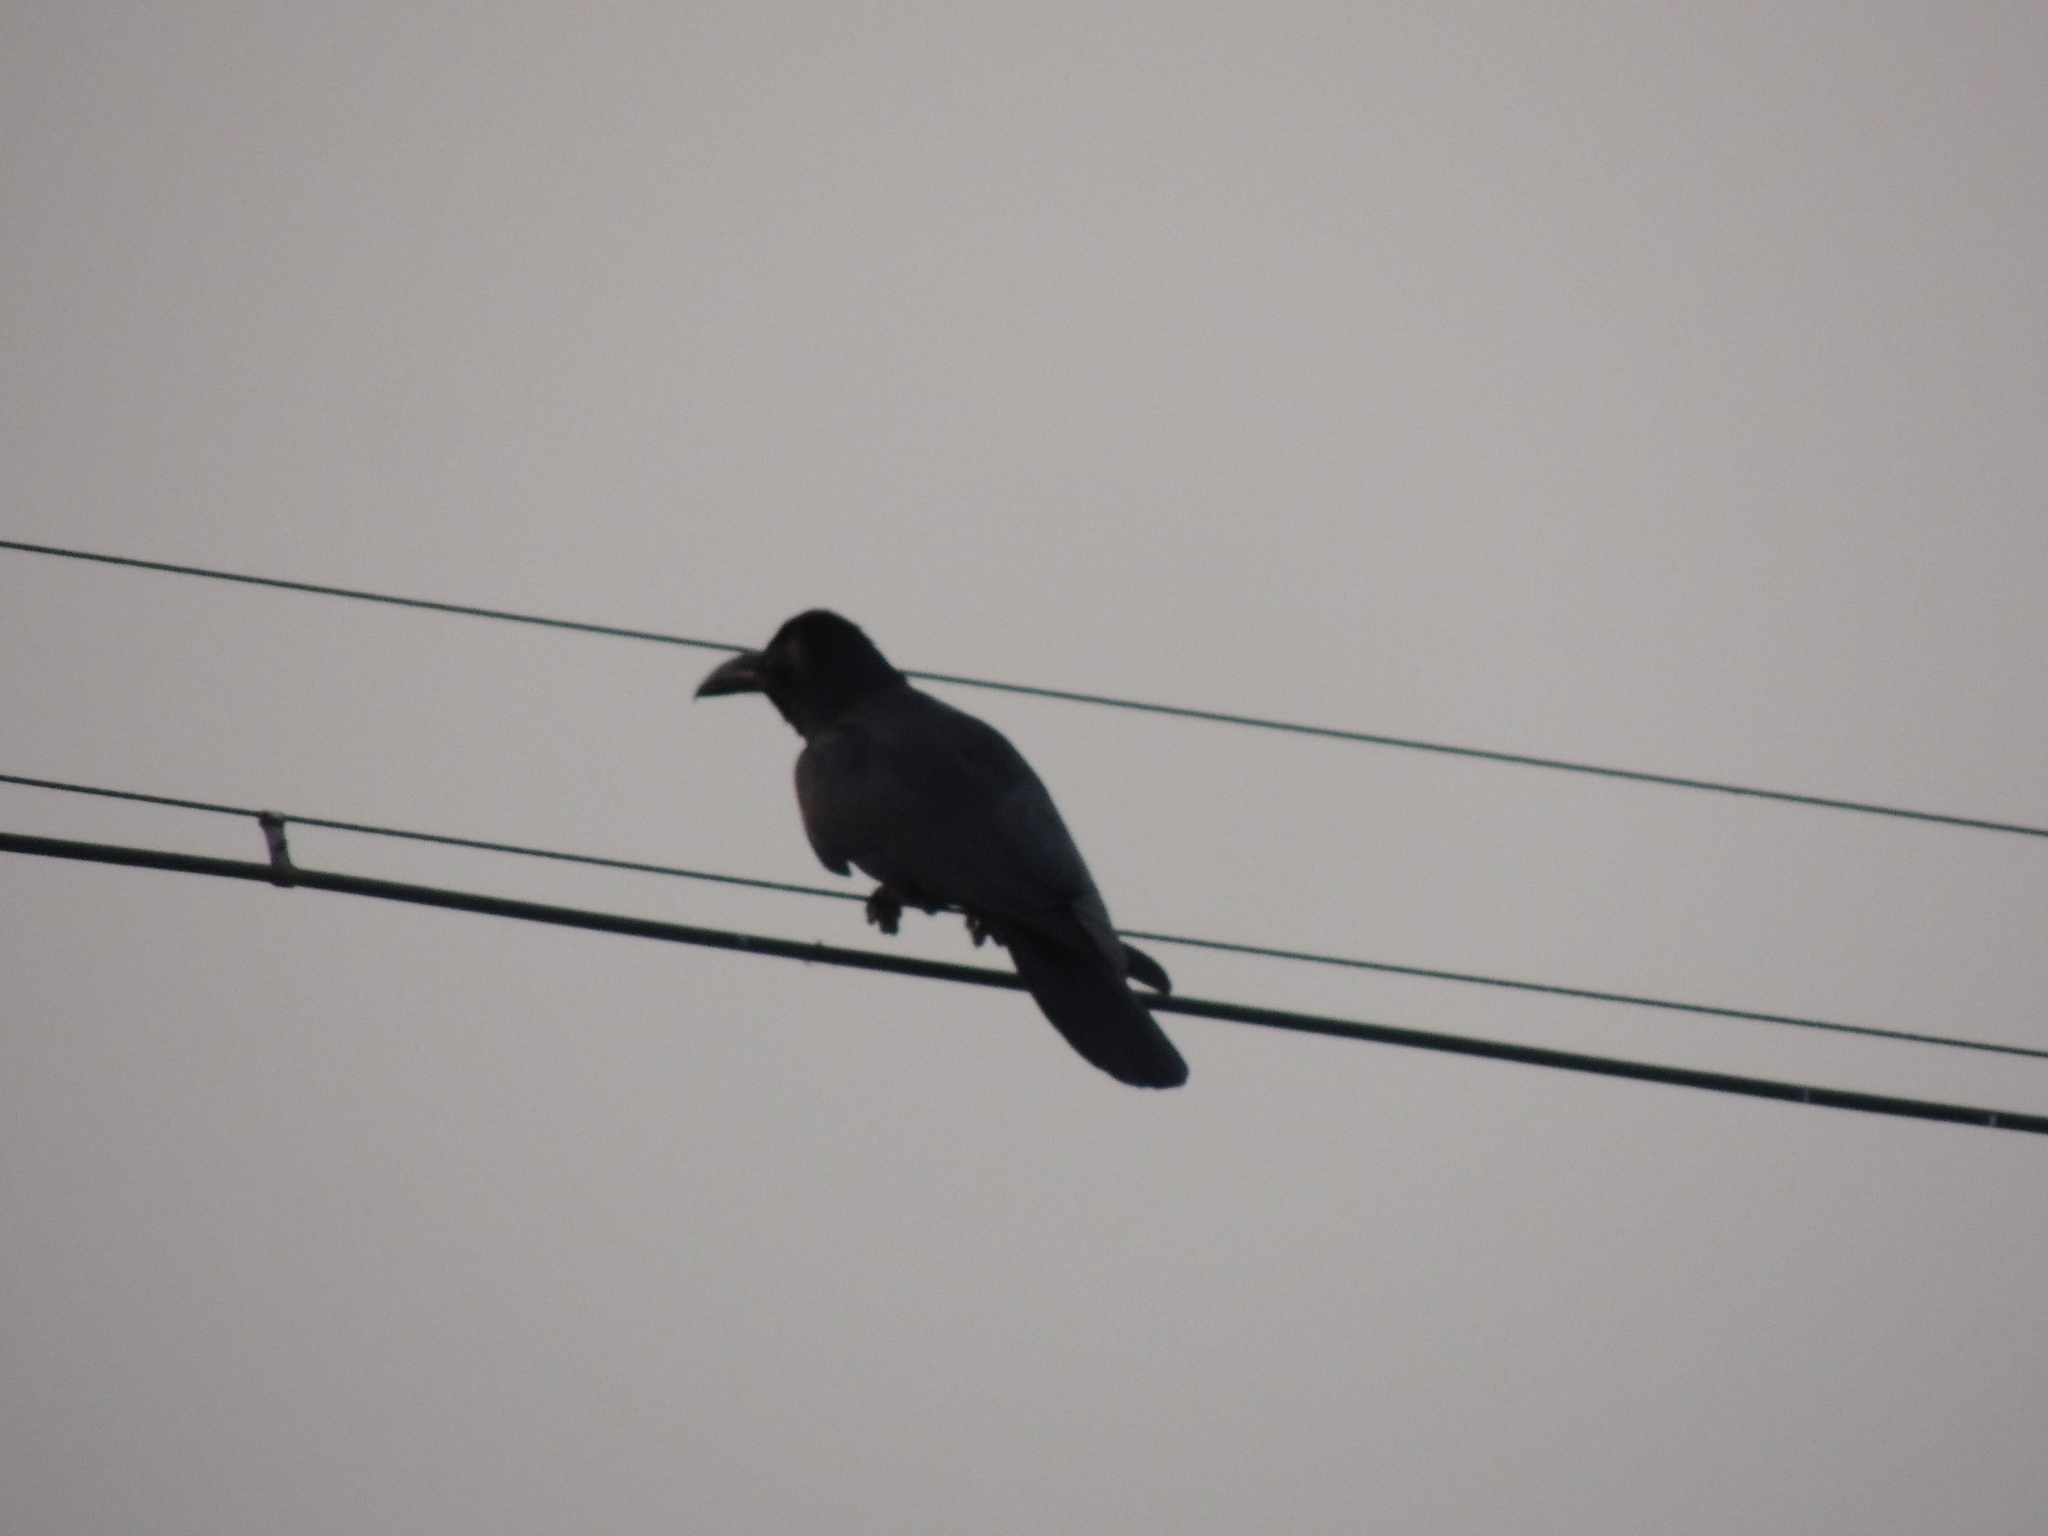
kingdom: Animalia
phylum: Chordata
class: Aves
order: Passeriformes
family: Corvidae
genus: Corvus
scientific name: Corvus macrorhynchos
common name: Large-billed crow
